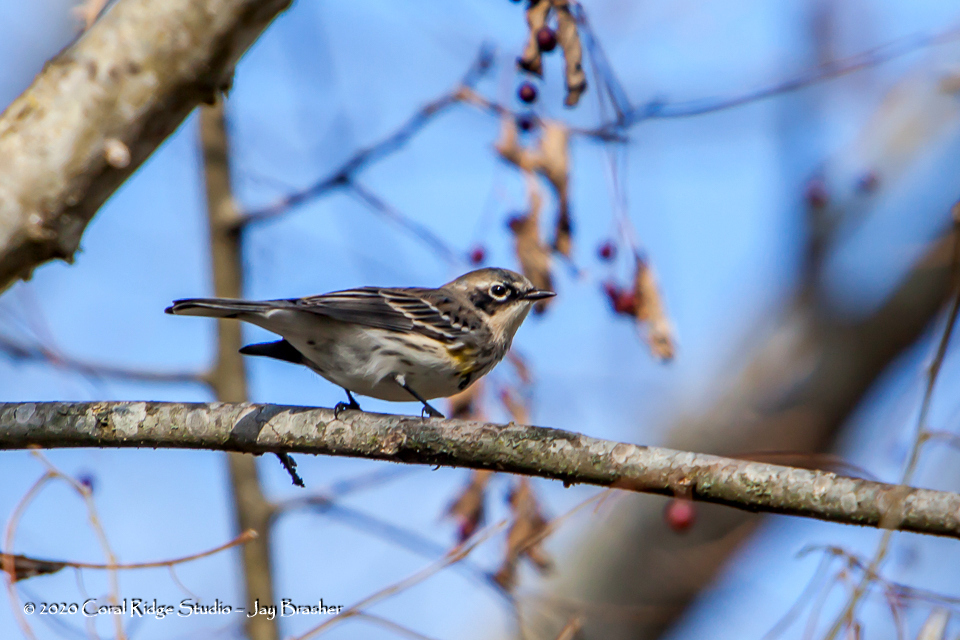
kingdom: Animalia
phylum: Chordata
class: Aves
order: Passeriformes
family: Parulidae
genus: Setophaga
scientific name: Setophaga coronata
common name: Myrtle warbler
